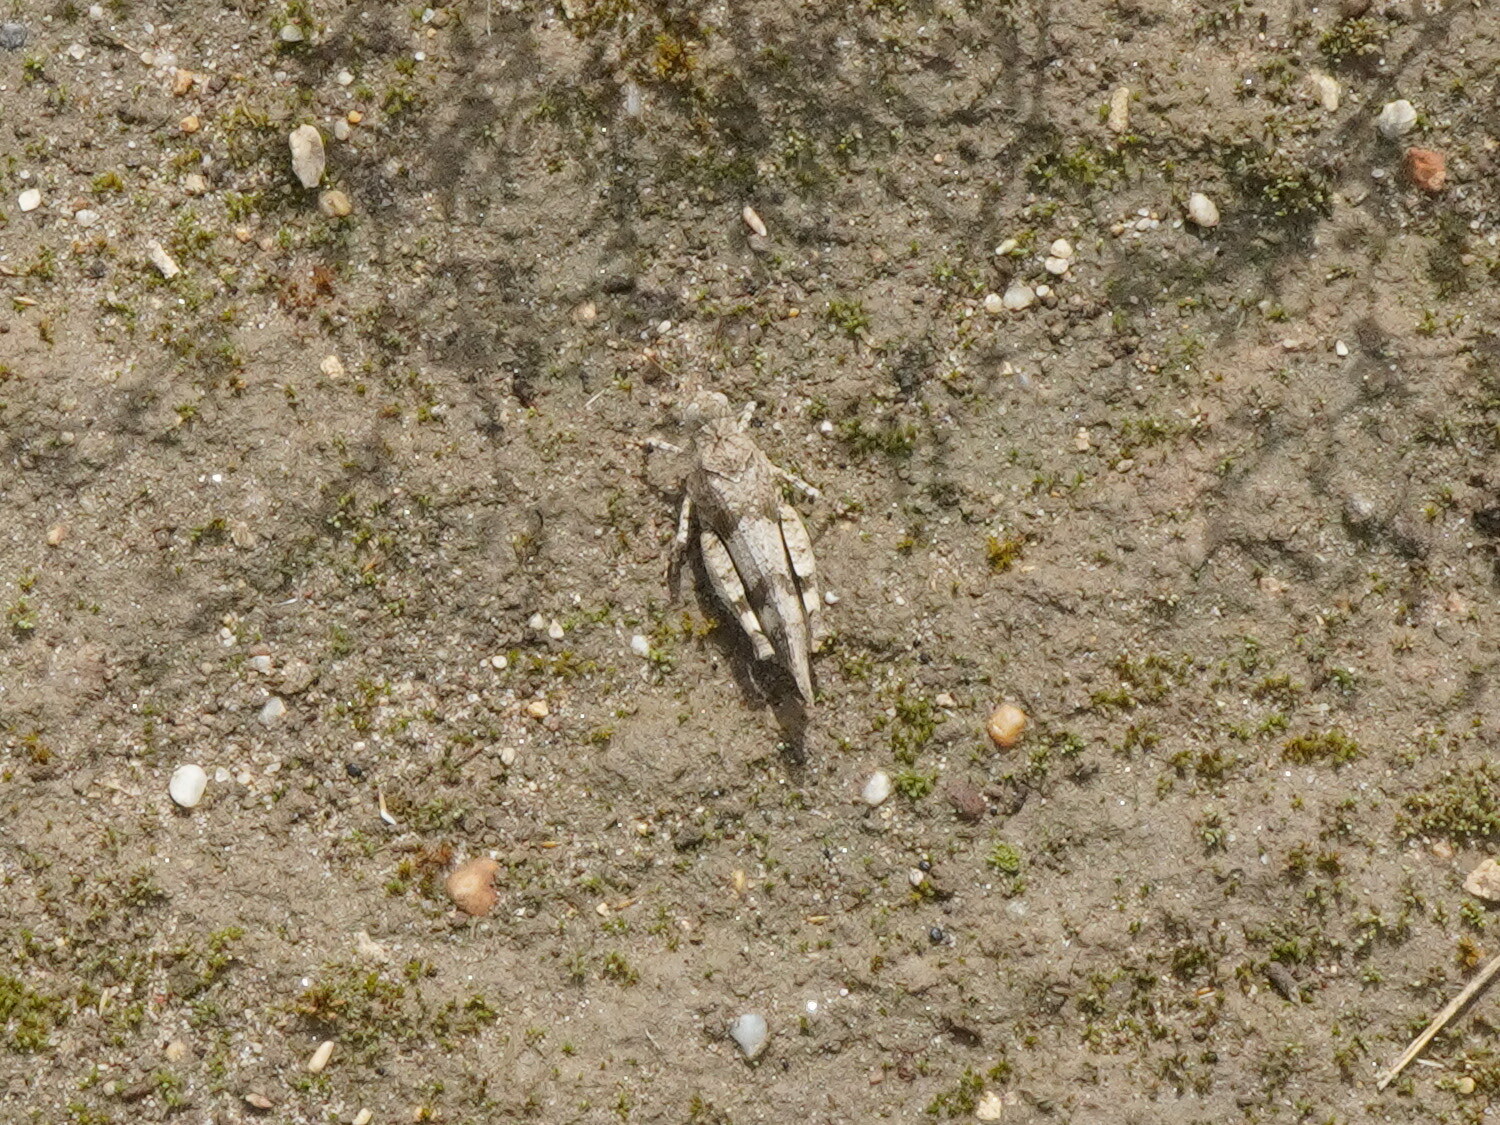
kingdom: Animalia
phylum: Arthropoda
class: Insecta
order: Orthoptera
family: Acrididae
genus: Oedipoda
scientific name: Oedipoda caerulescens
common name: Blue-winged grasshopper
